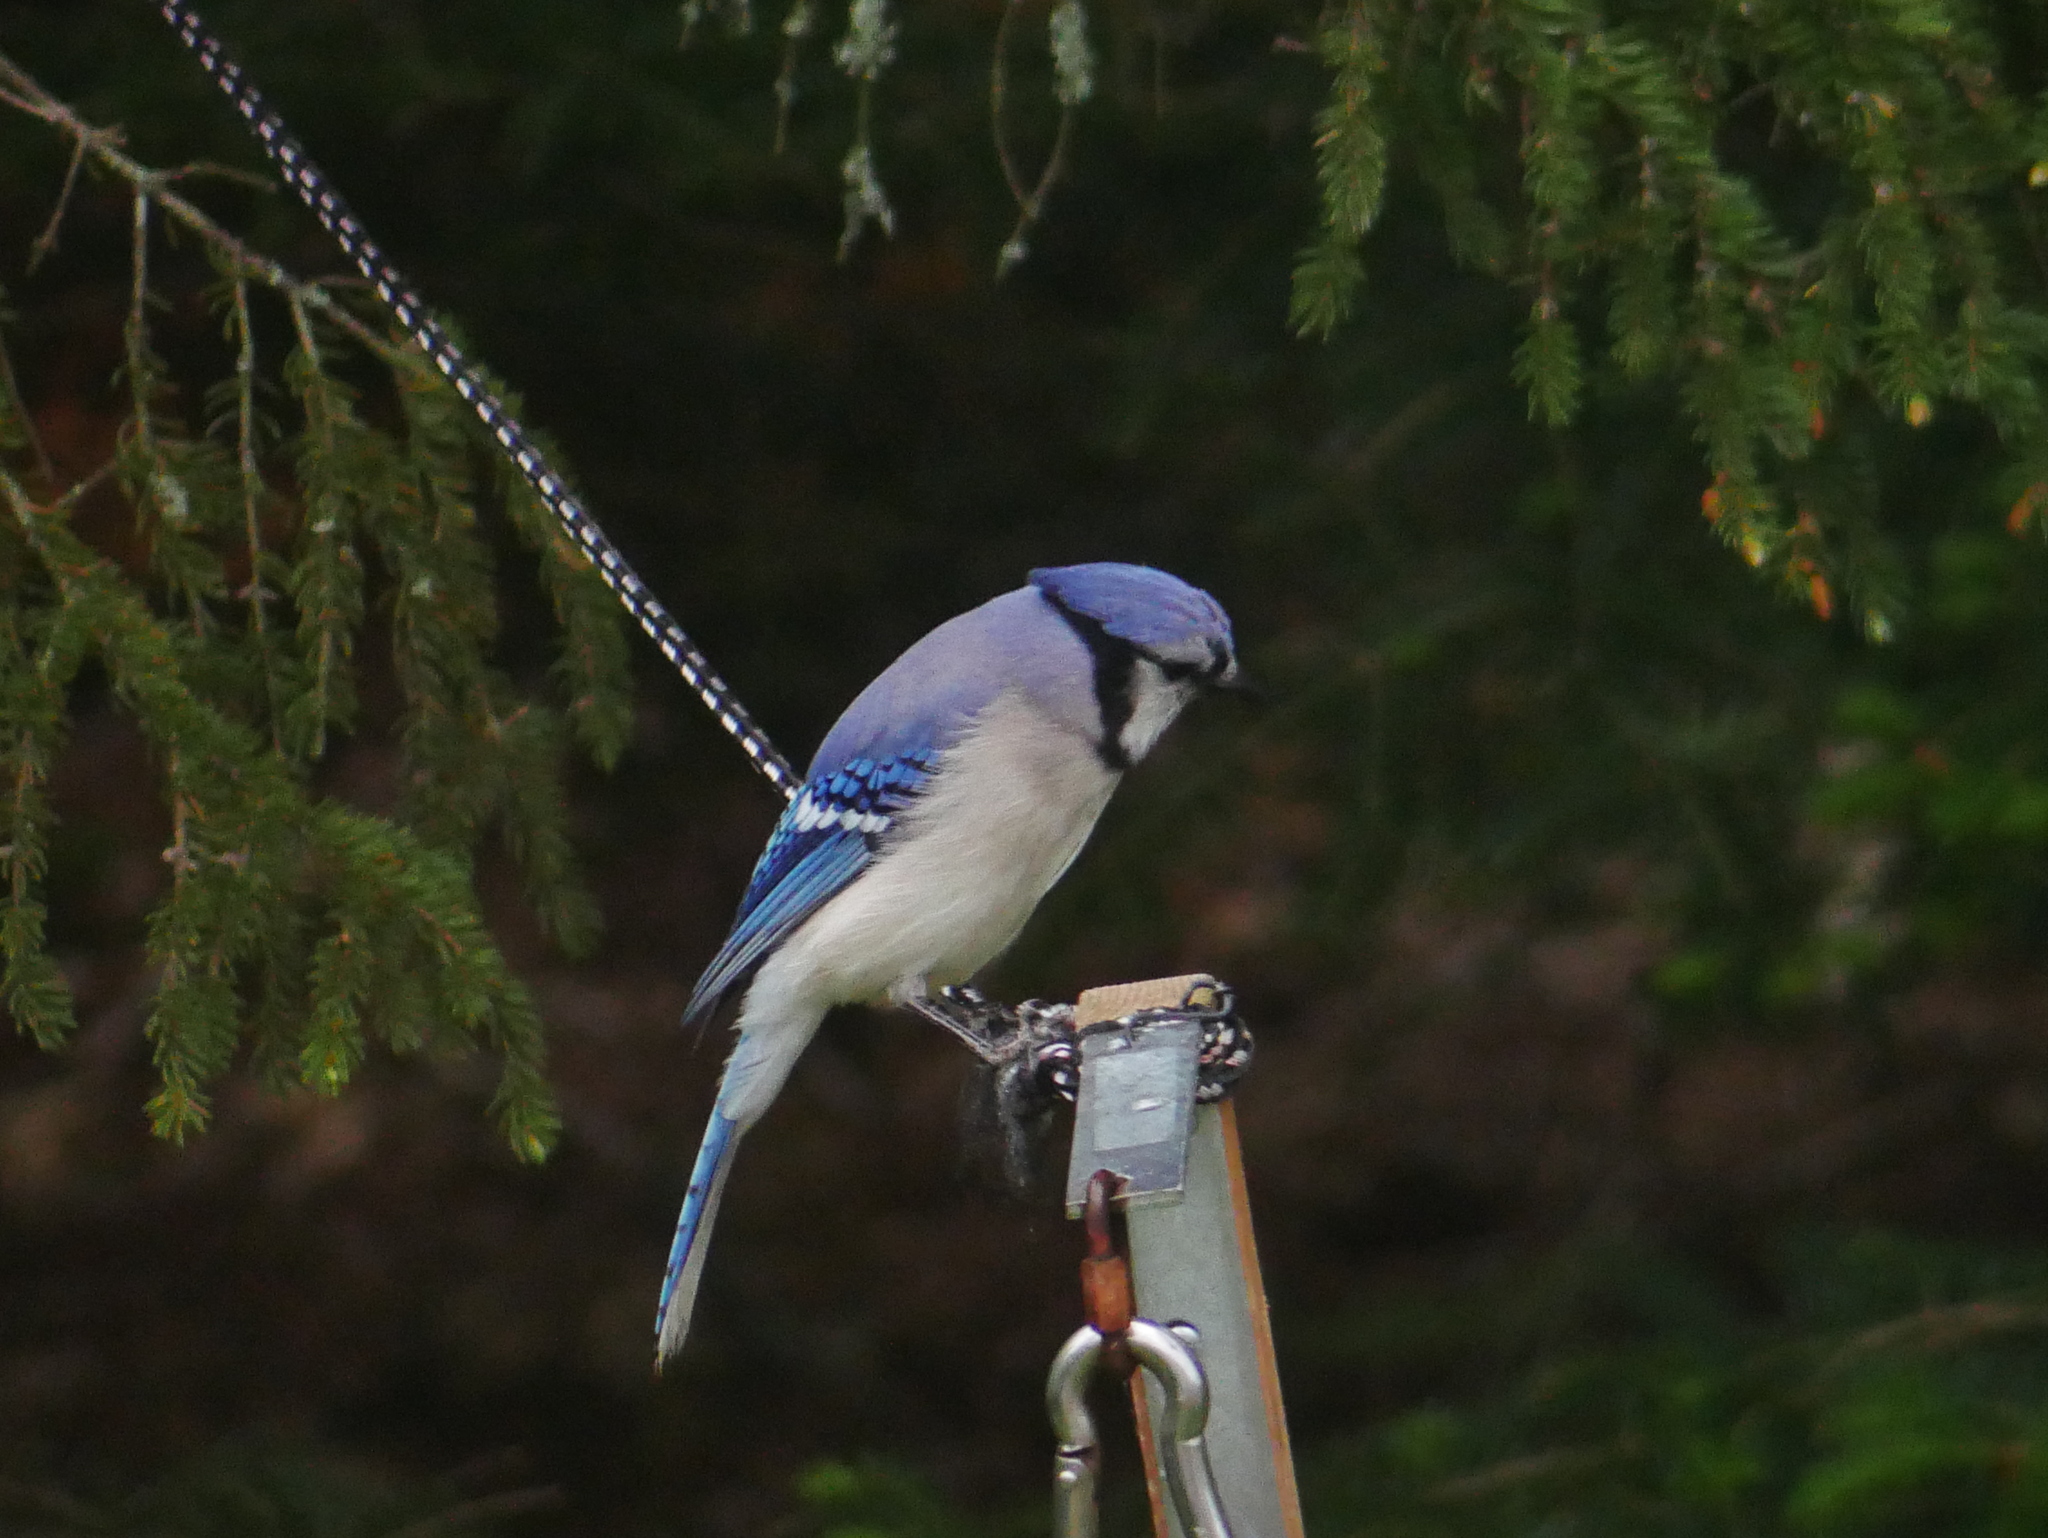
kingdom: Animalia
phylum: Chordata
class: Aves
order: Passeriformes
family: Corvidae
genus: Cyanocitta
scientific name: Cyanocitta cristata
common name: Blue jay
